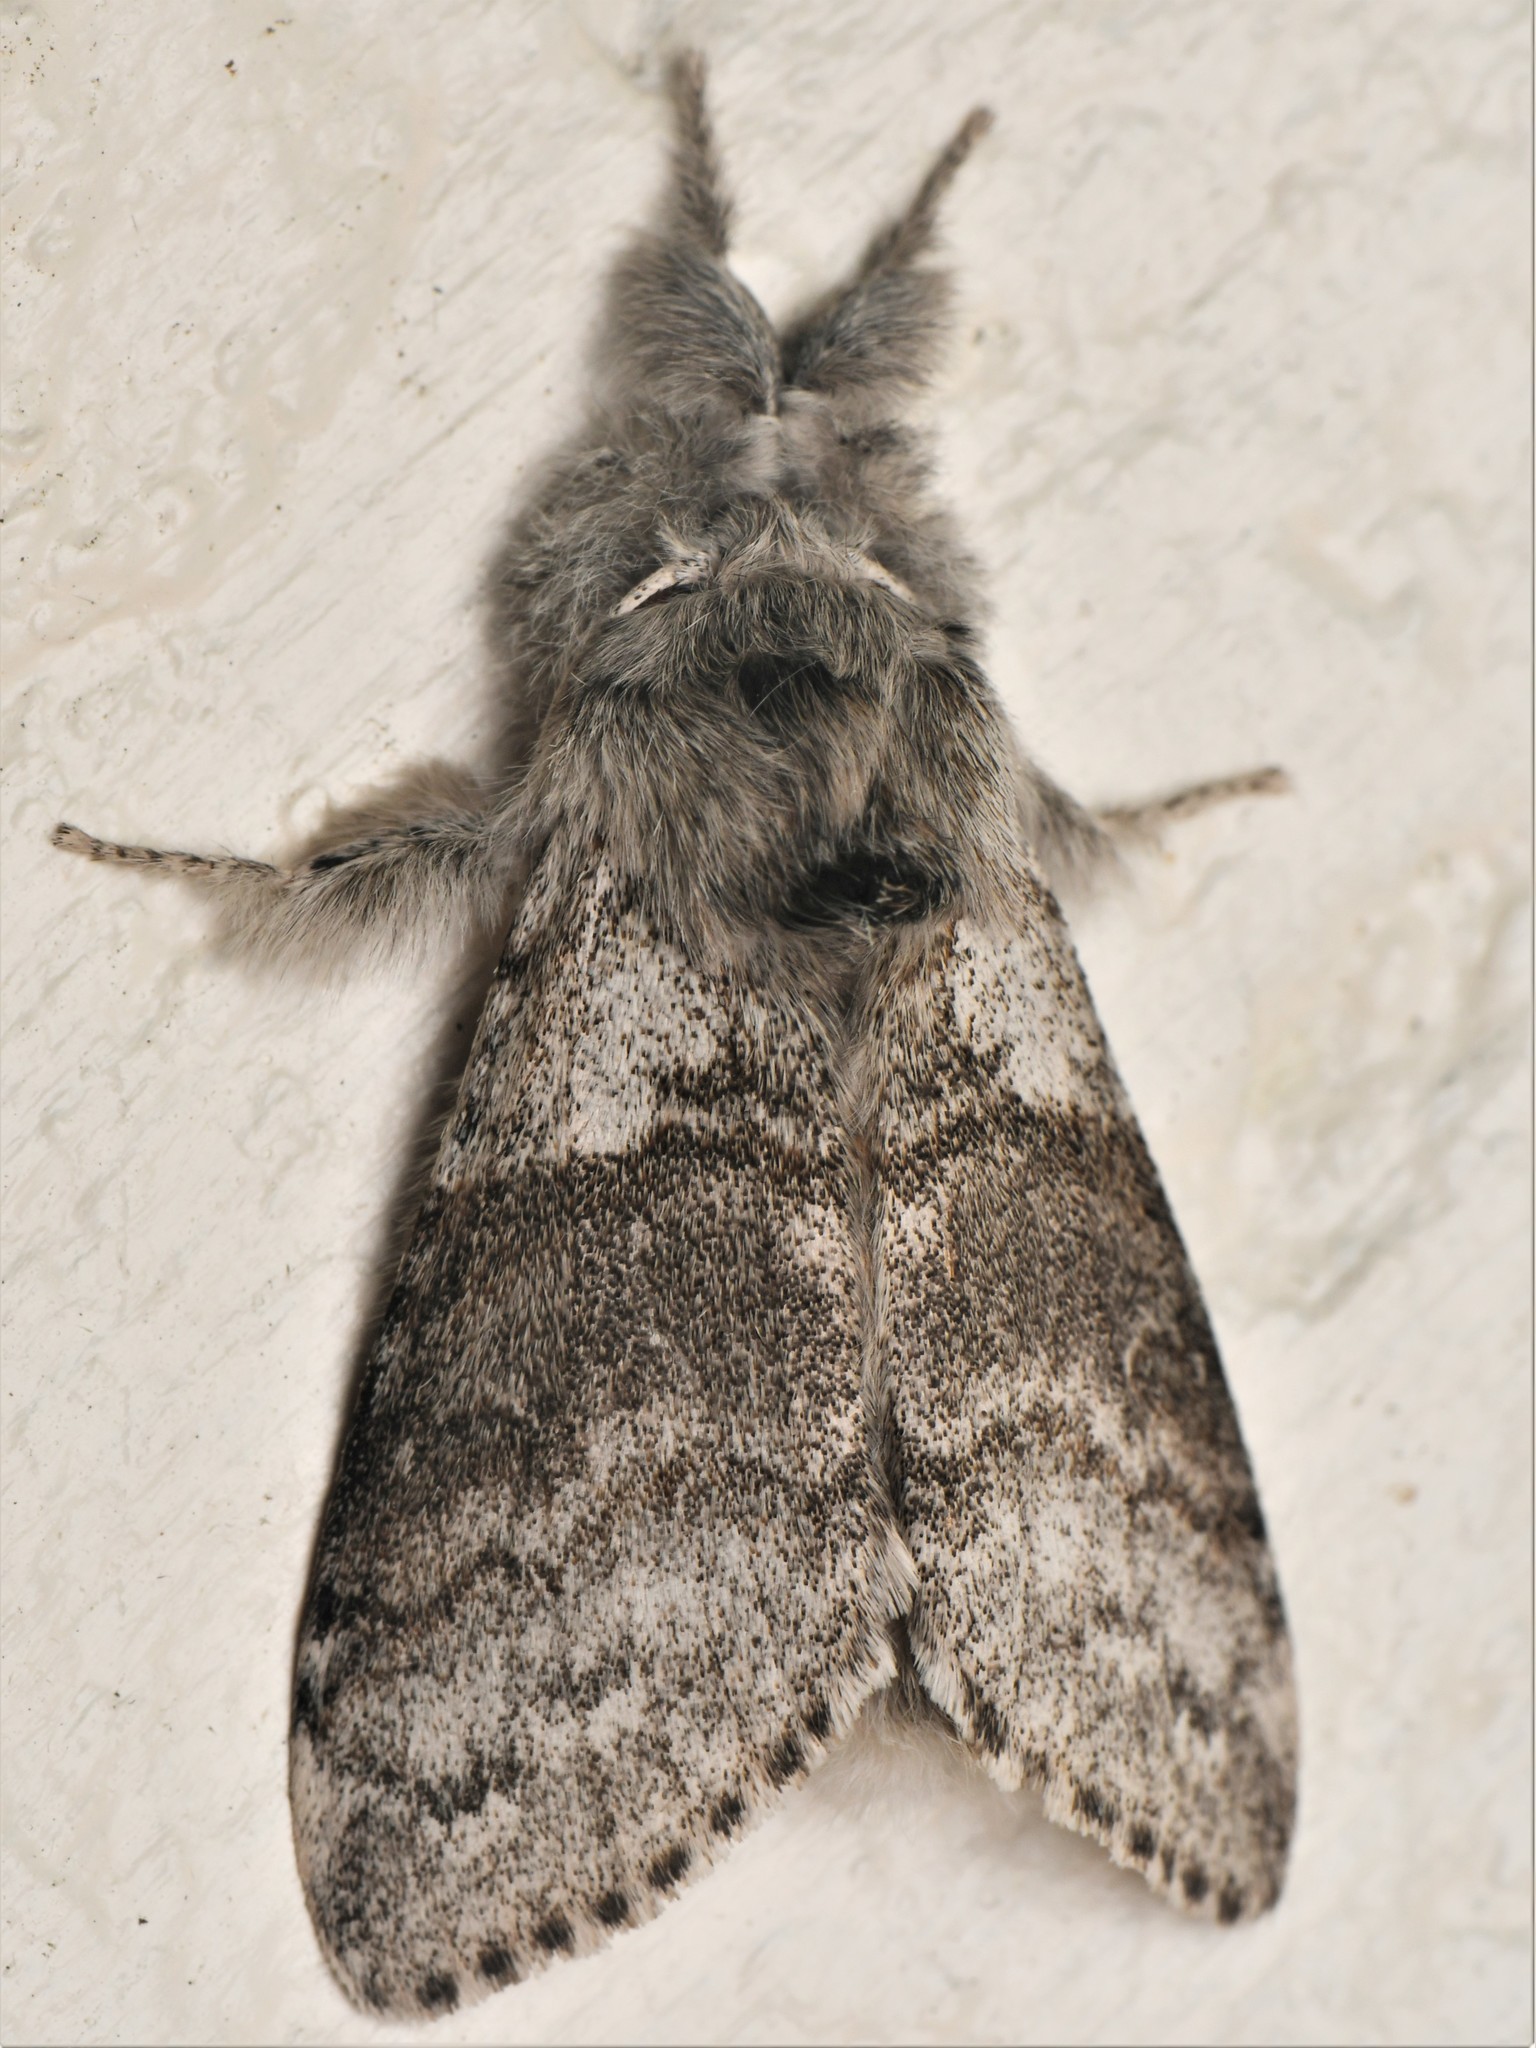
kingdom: Animalia
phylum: Arthropoda
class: Insecta
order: Lepidoptera
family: Erebidae
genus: Calliteara
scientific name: Calliteara pudibunda
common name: Pale tussock
